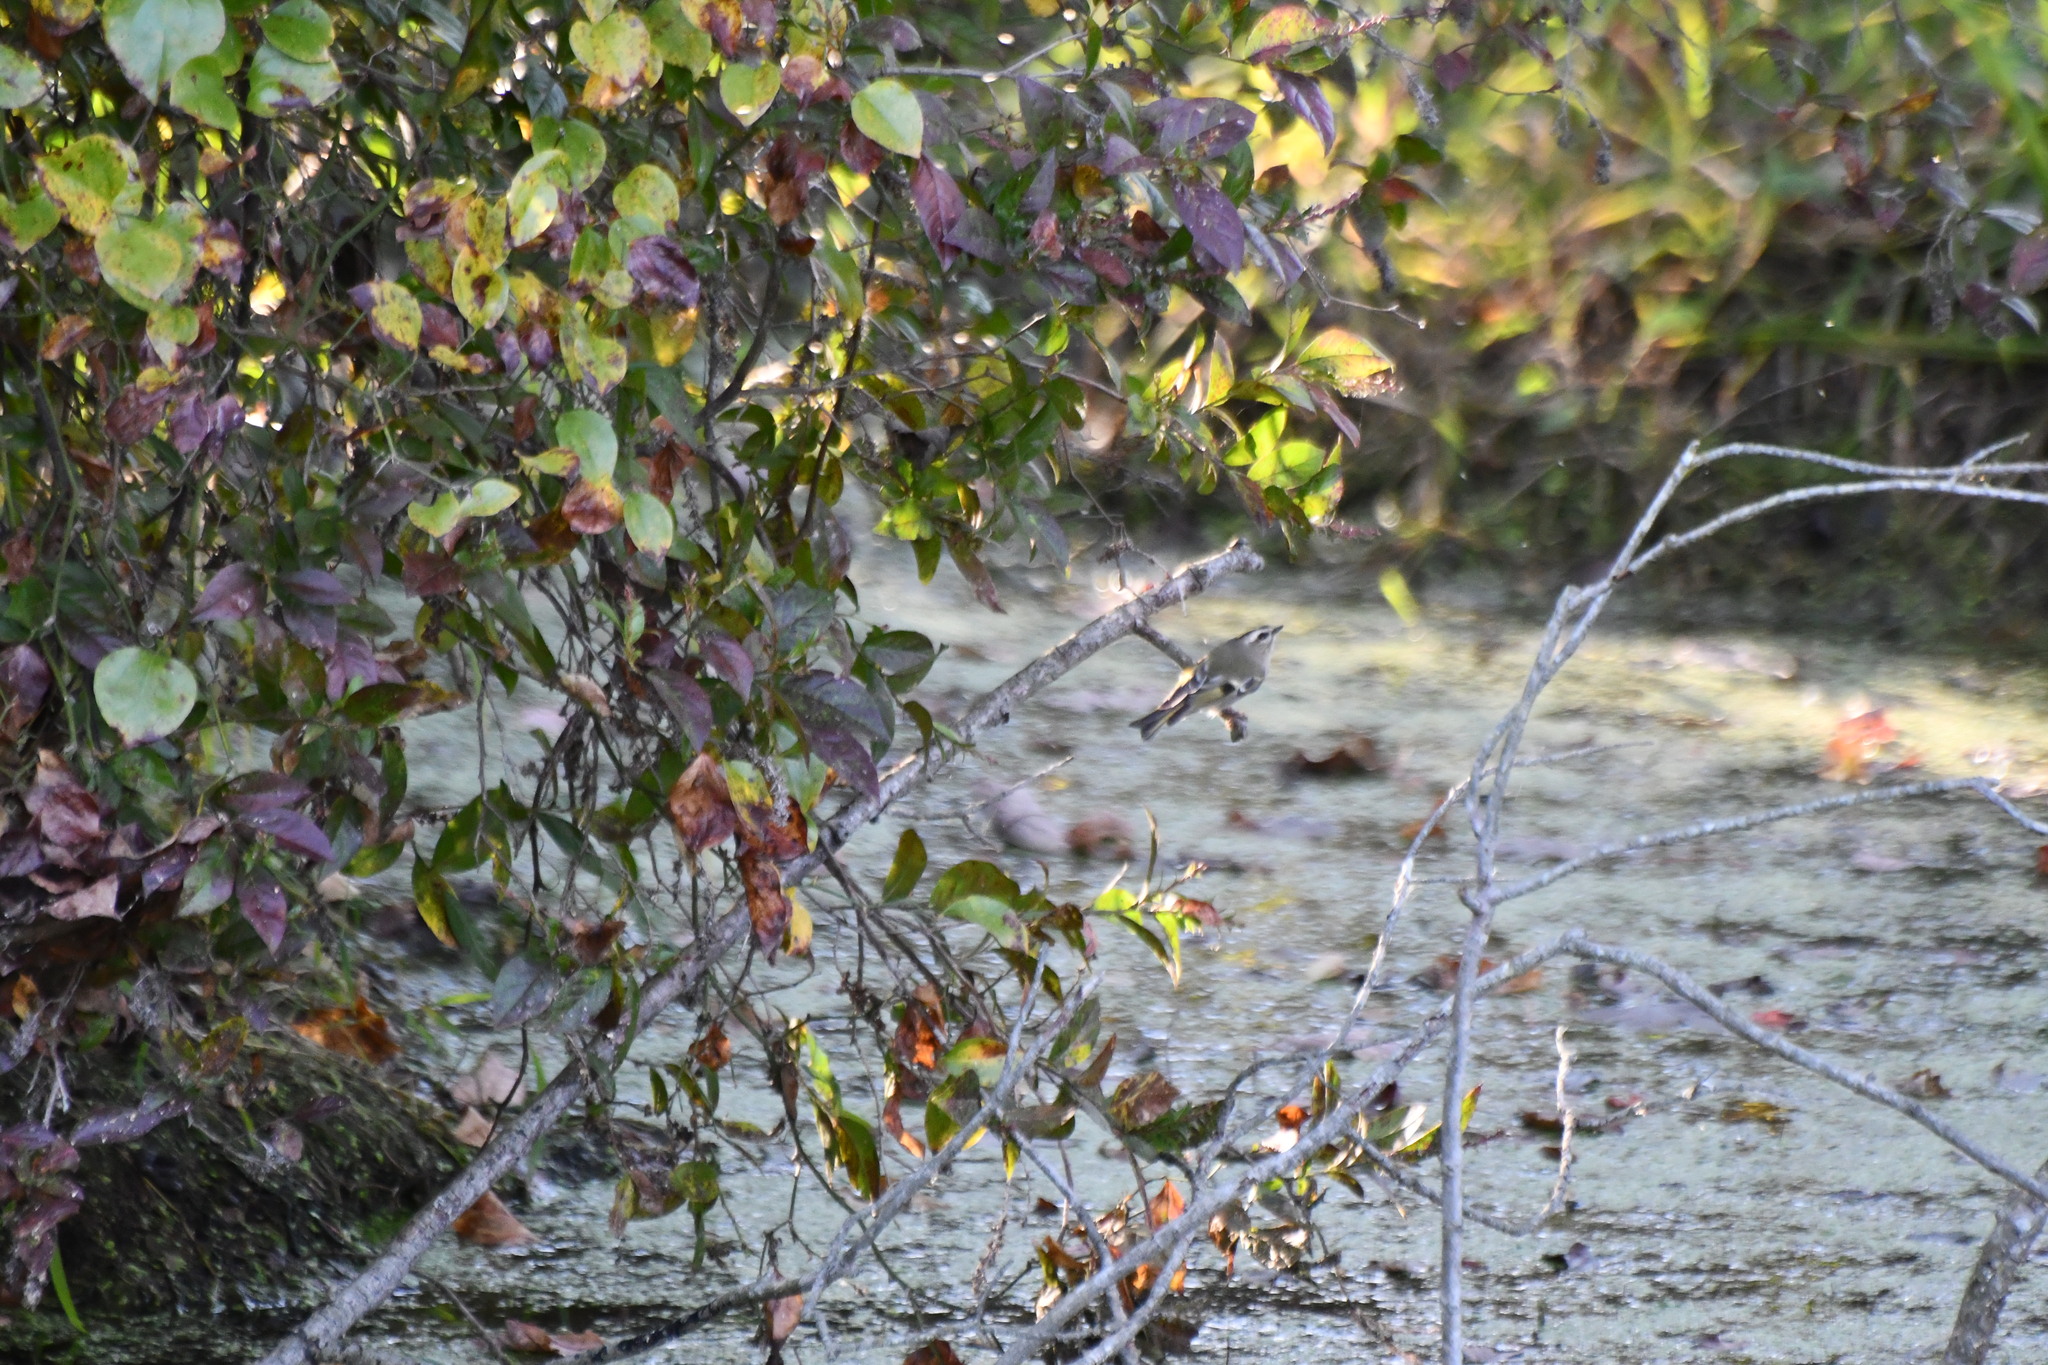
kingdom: Animalia
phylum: Chordata
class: Aves
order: Passeriformes
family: Regulidae
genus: Regulus
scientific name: Regulus satrapa
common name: Golden-crowned kinglet
